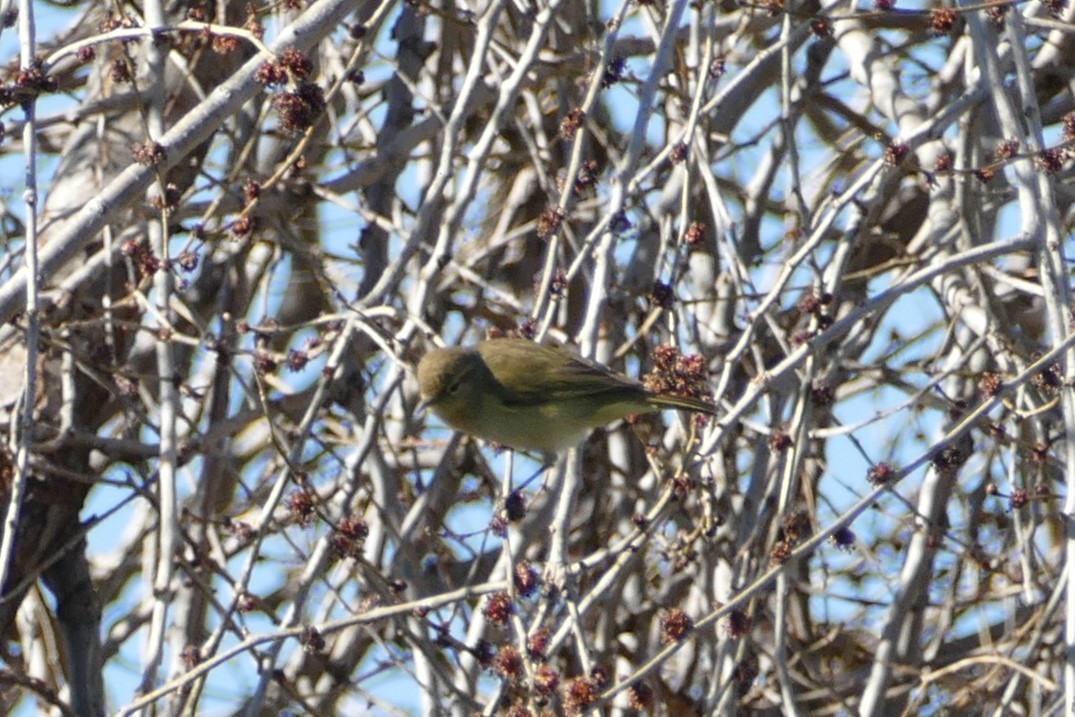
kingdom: Animalia
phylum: Chordata
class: Aves
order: Passeriformes
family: Phylloscopidae
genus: Phylloscopus
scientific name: Phylloscopus collybita
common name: Common chiffchaff
